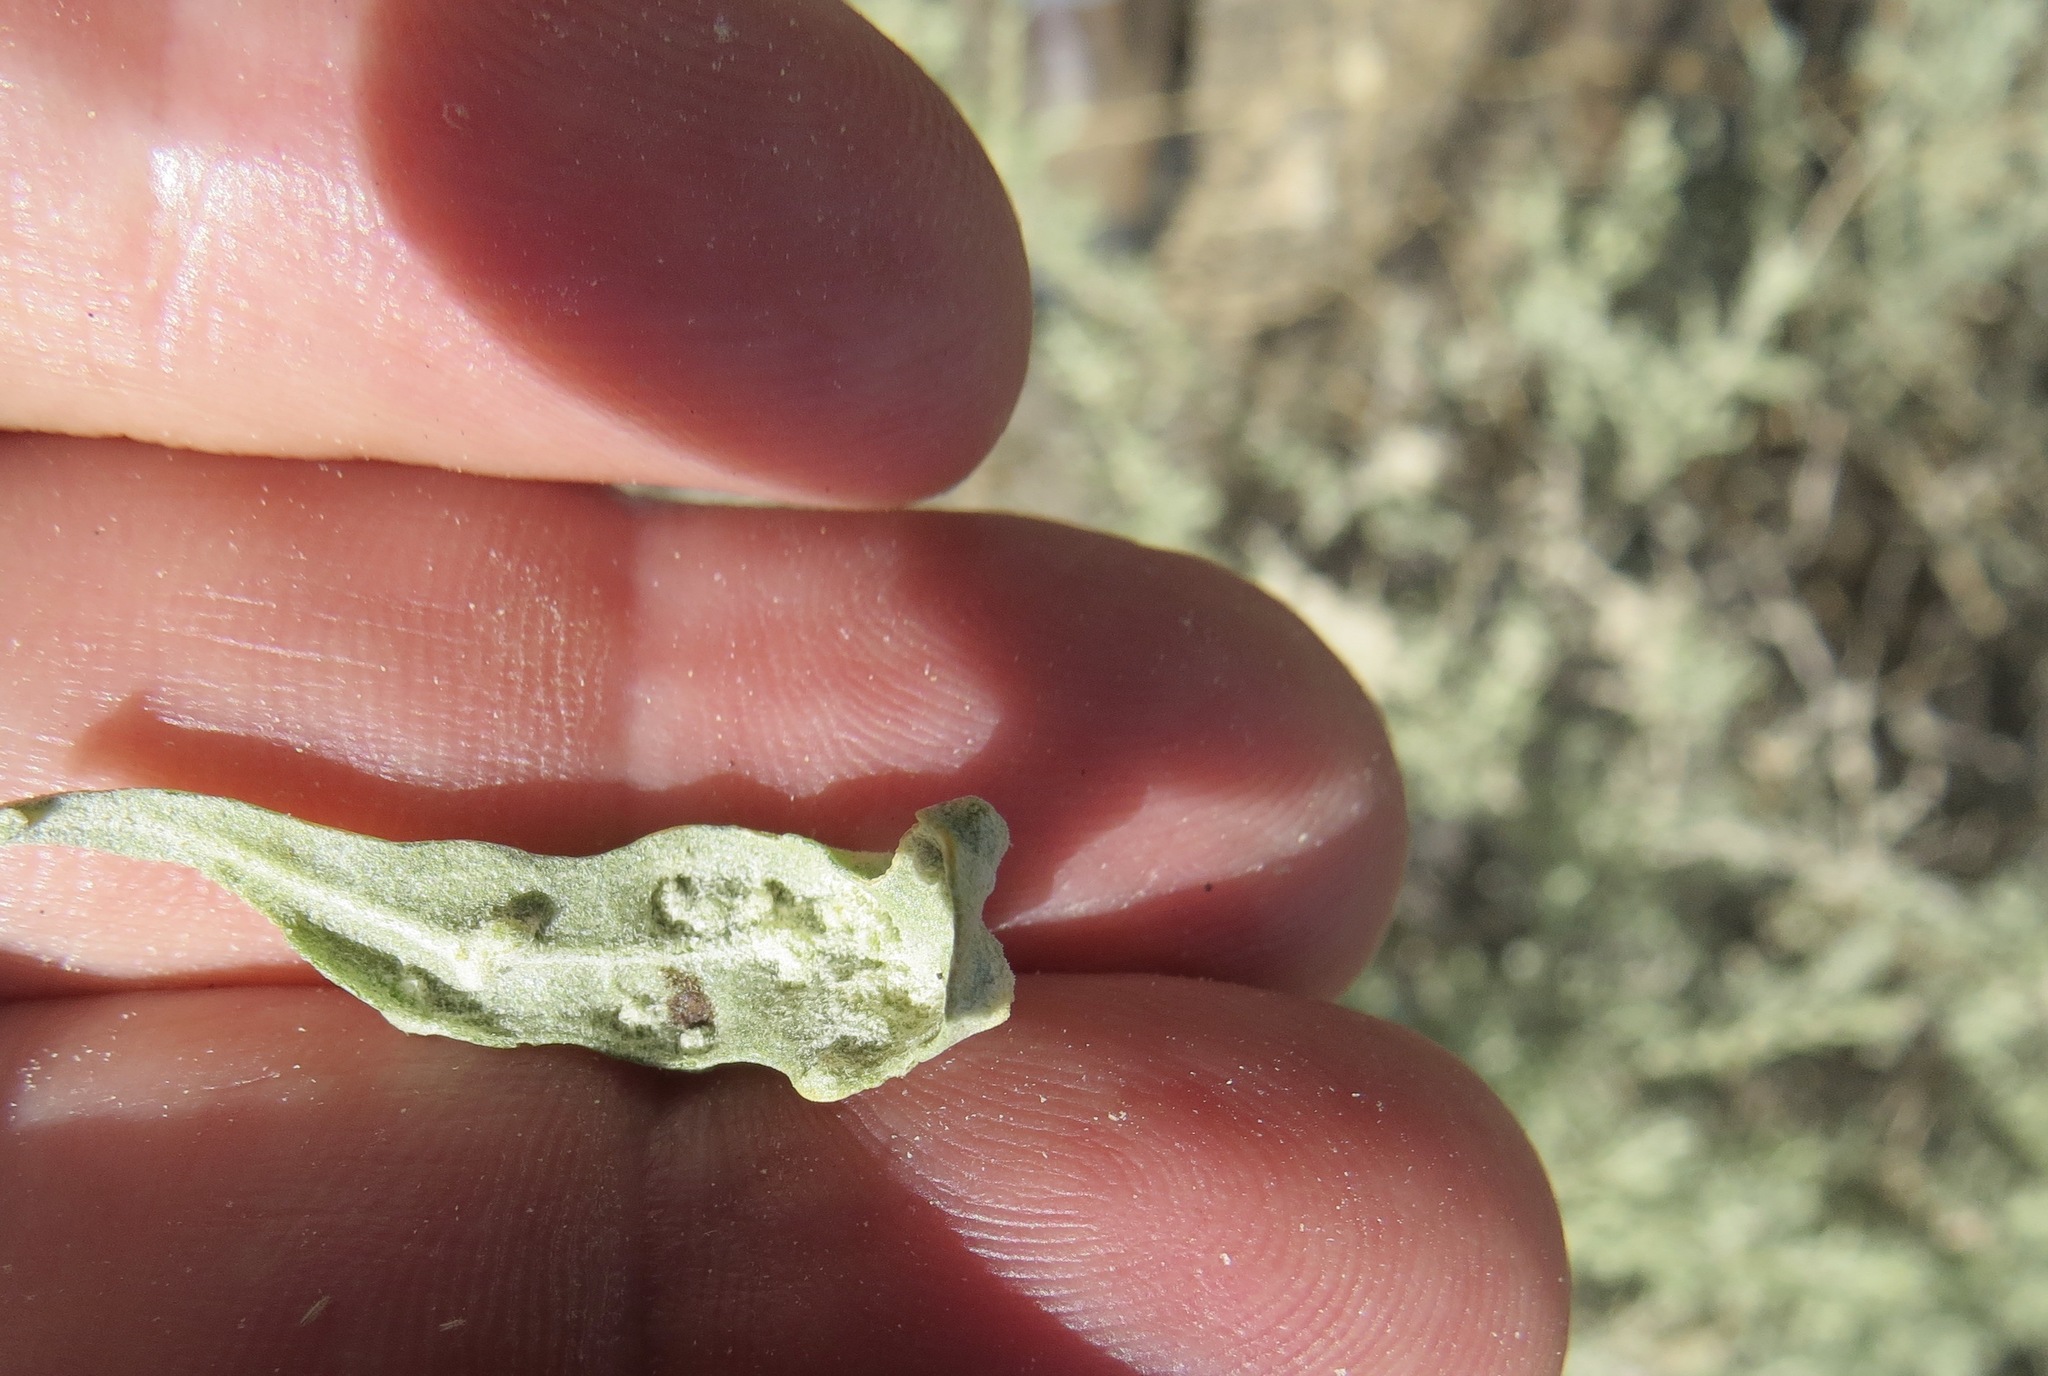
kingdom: Animalia
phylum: Arthropoda
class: Insecta
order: Diptera
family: Cecidomyiidae
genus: Asphondylia
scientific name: Asphondylia atriplicicola
